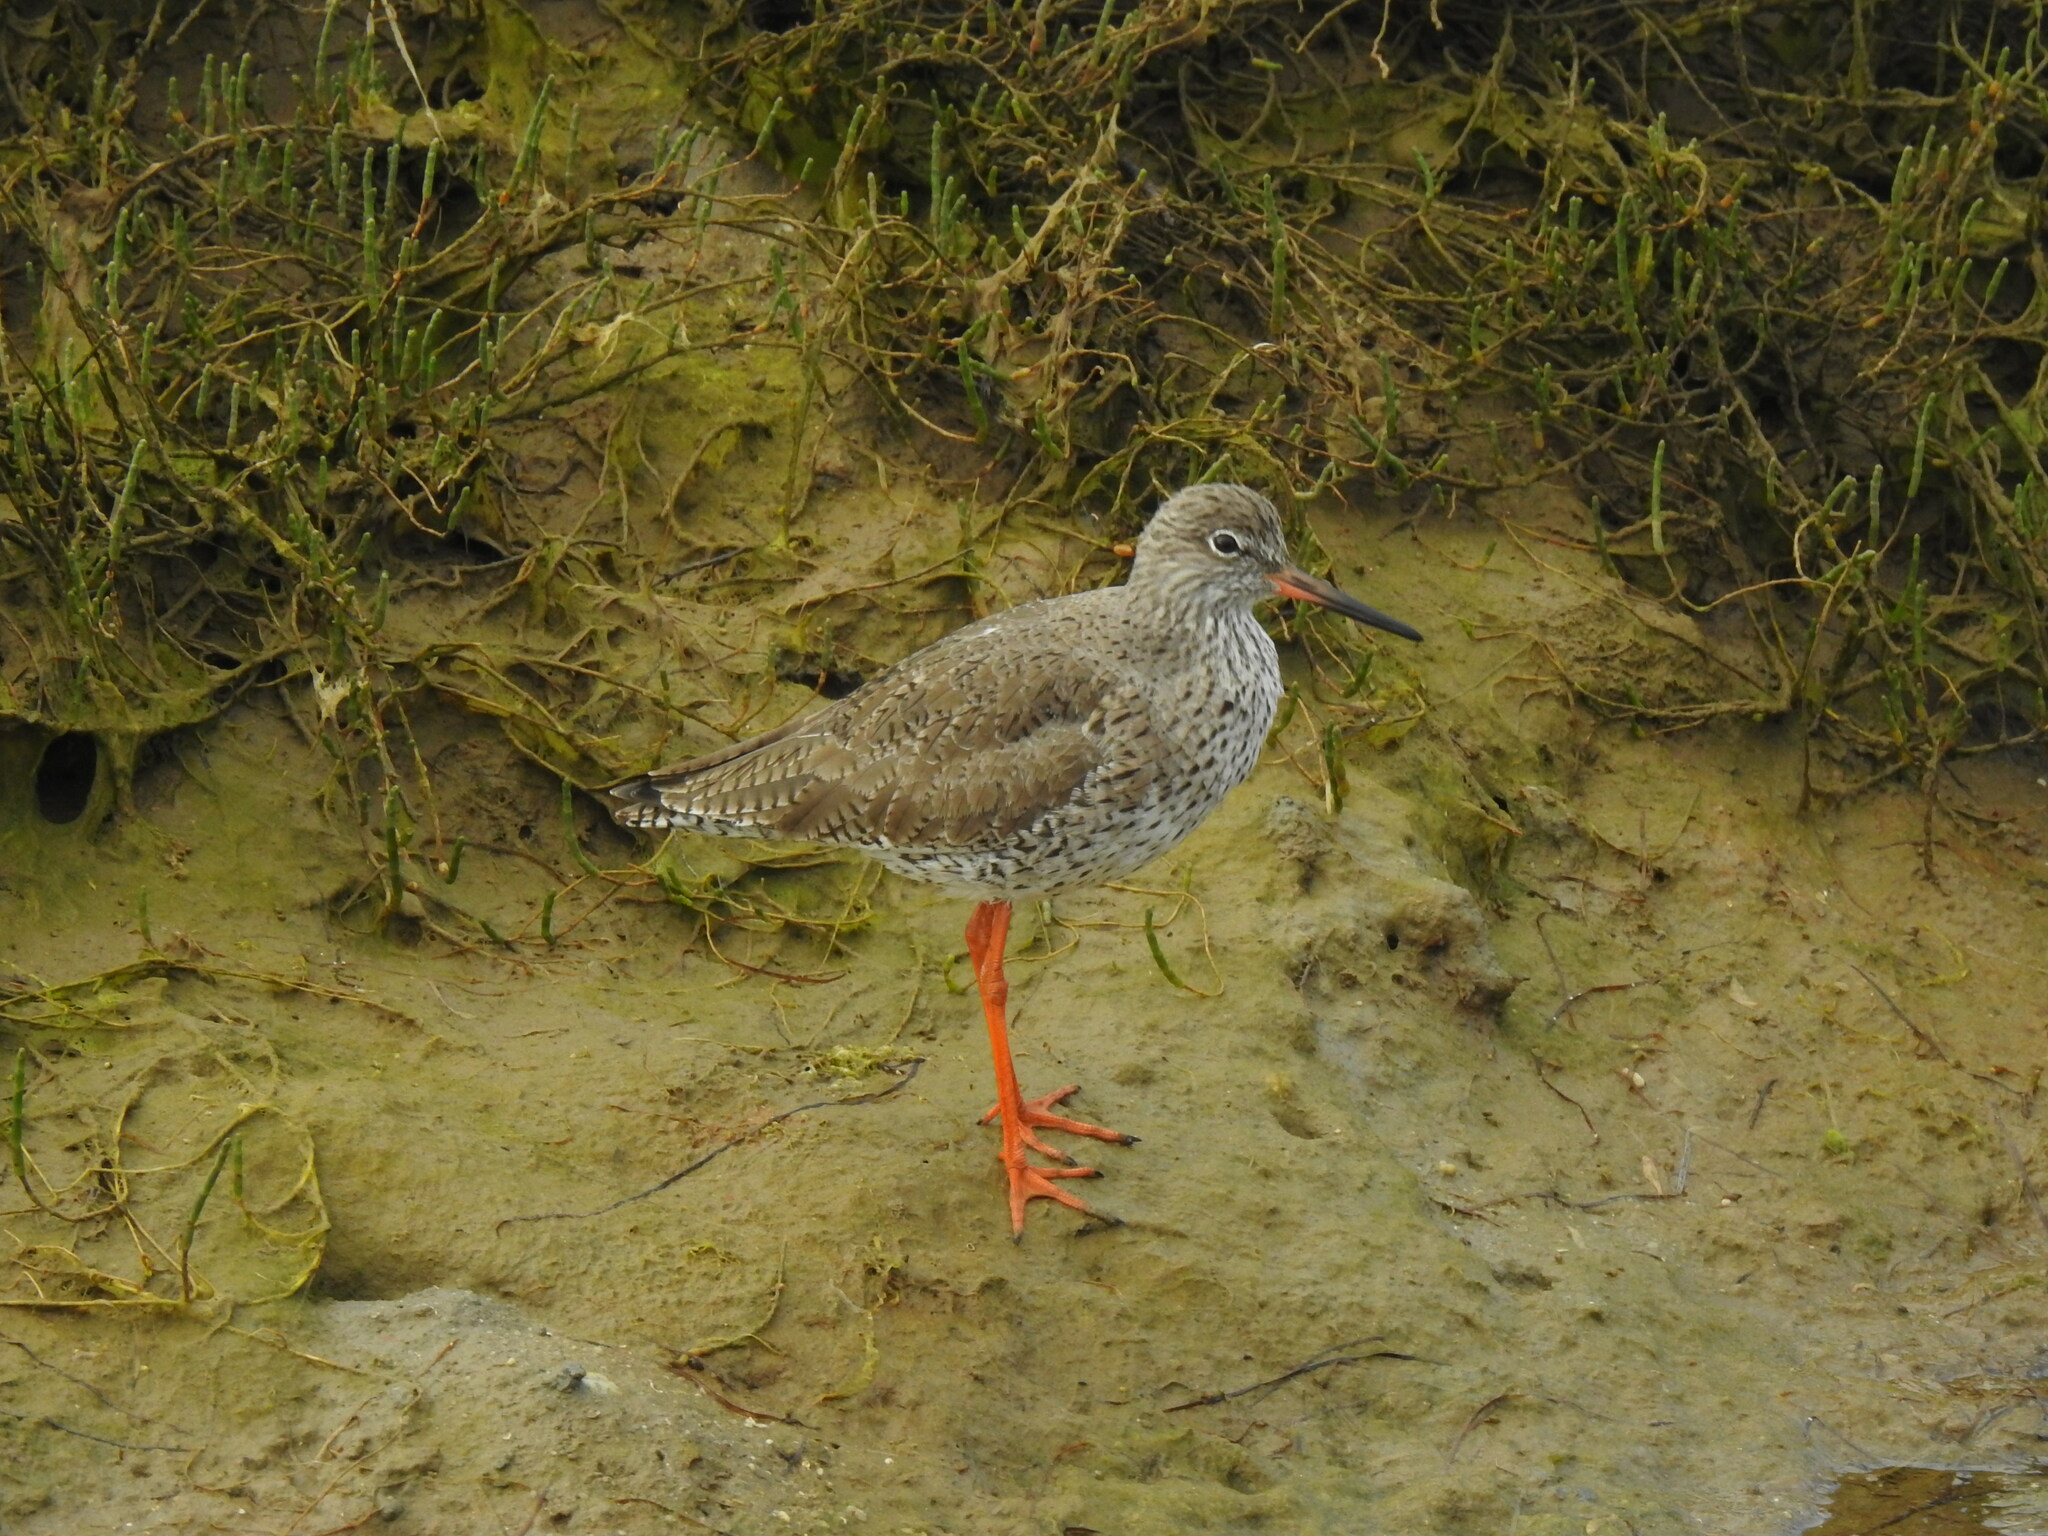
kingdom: Animalia
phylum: Chordata
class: Aves
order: Charadriiformes
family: Scolopacidae
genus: Tringa
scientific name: Tringa totanus
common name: Common redshank
